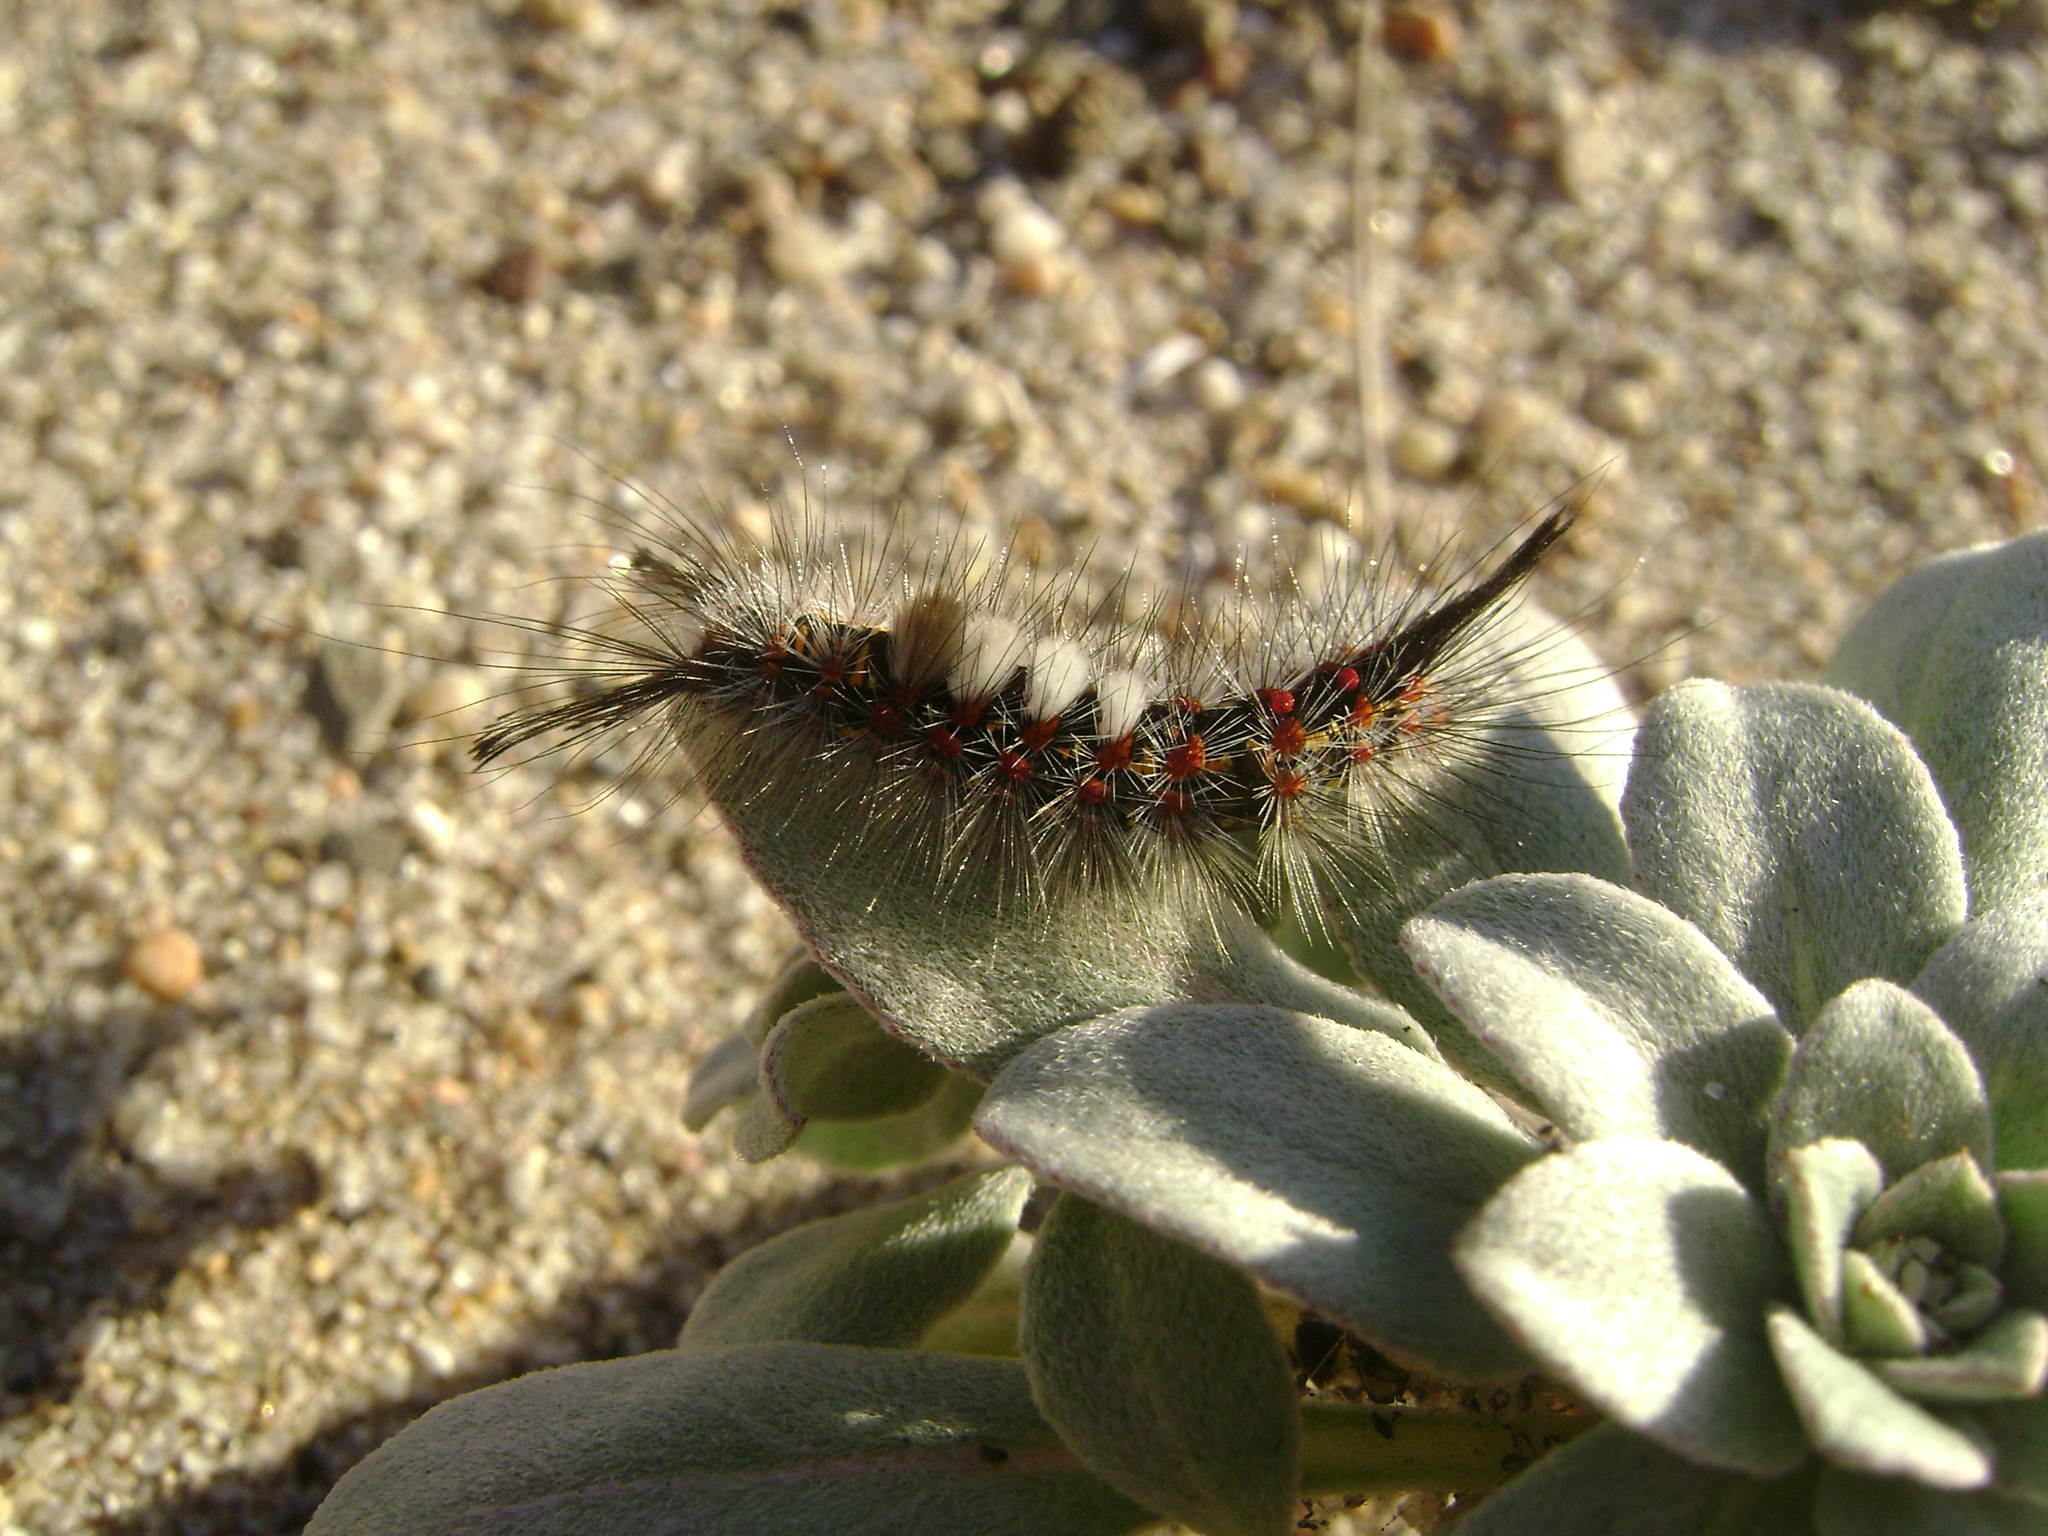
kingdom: Animalia
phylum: Arthropoda
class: Insecta
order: Lepidoptera
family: Erebidae
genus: Orgyia
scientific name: Orgyia vetusta
